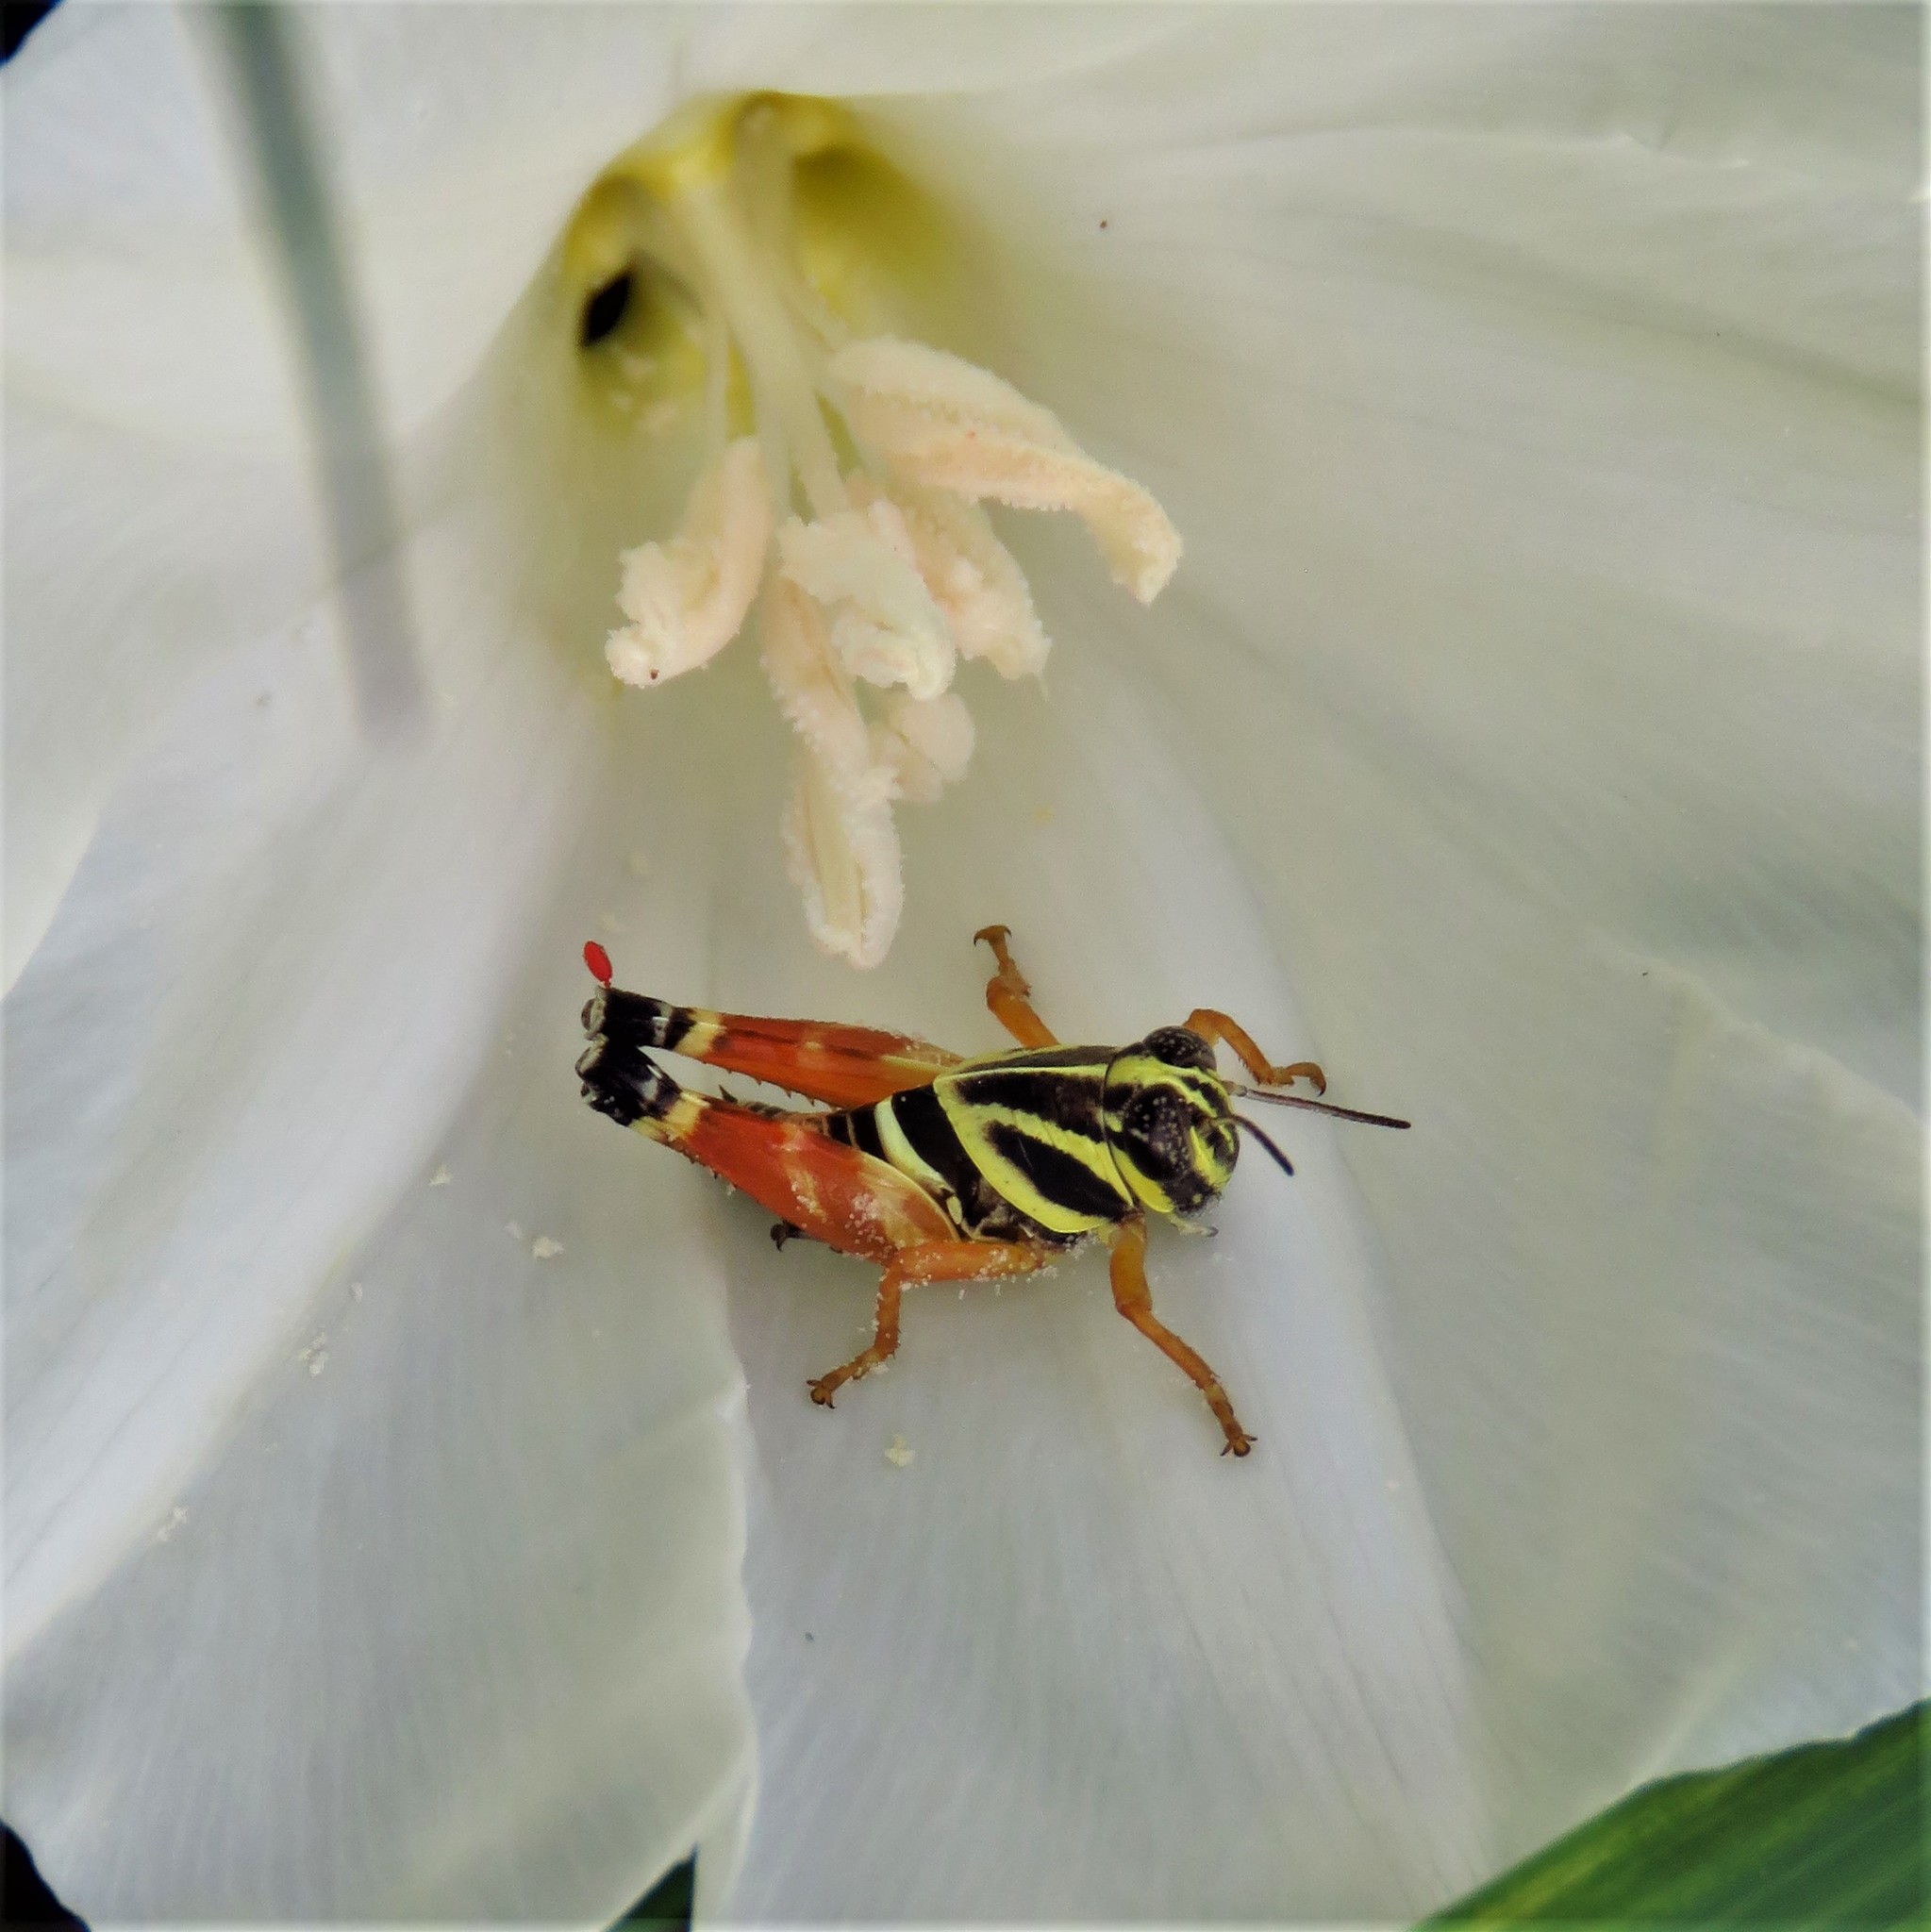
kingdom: Animalia
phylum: Arthropoda
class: Insecta
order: Orthoptera
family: Acrididae
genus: Aidemona
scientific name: Aidemona azteca
